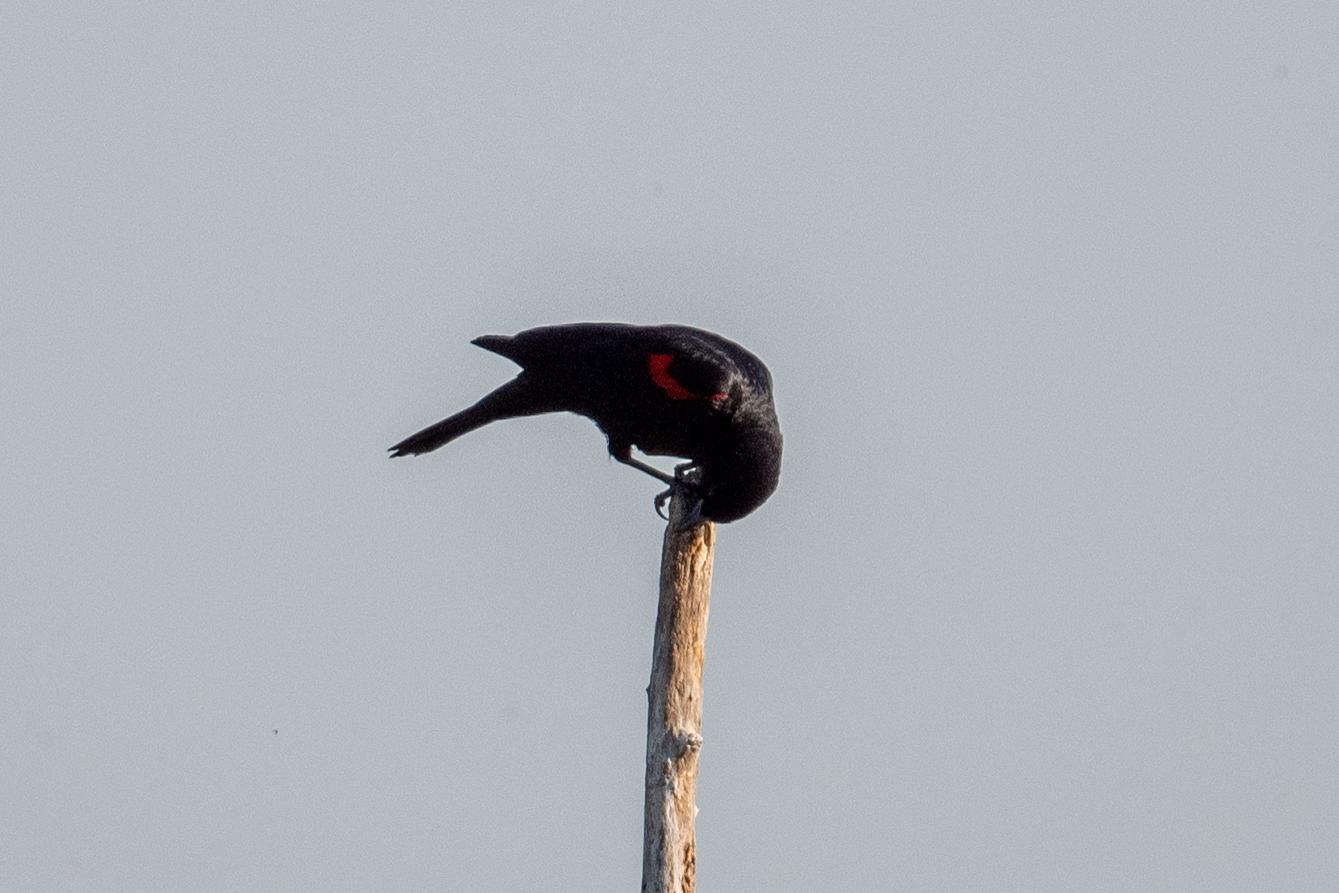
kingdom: Animalia
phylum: Chordata
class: Aves
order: Passeriformes
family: Icteridae
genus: Agelaius
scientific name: Agelaius phoeniceus
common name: Red-winged blackbird
